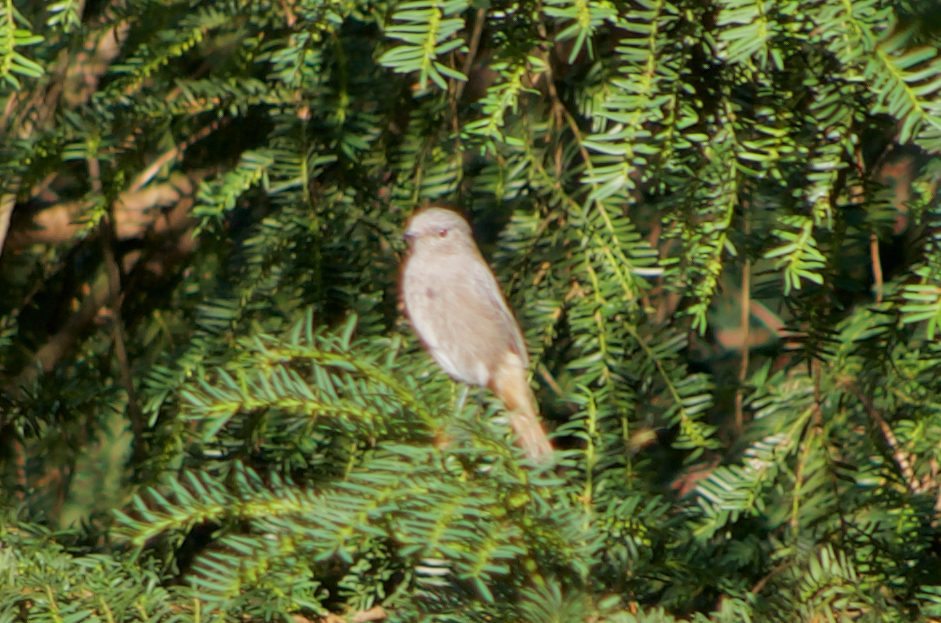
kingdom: Animalia
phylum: Chordata
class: Aves
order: Passeriformes
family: Muscicapidae
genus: Phoenicurus
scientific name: Phoenicurus ochruros
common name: Black redstart
